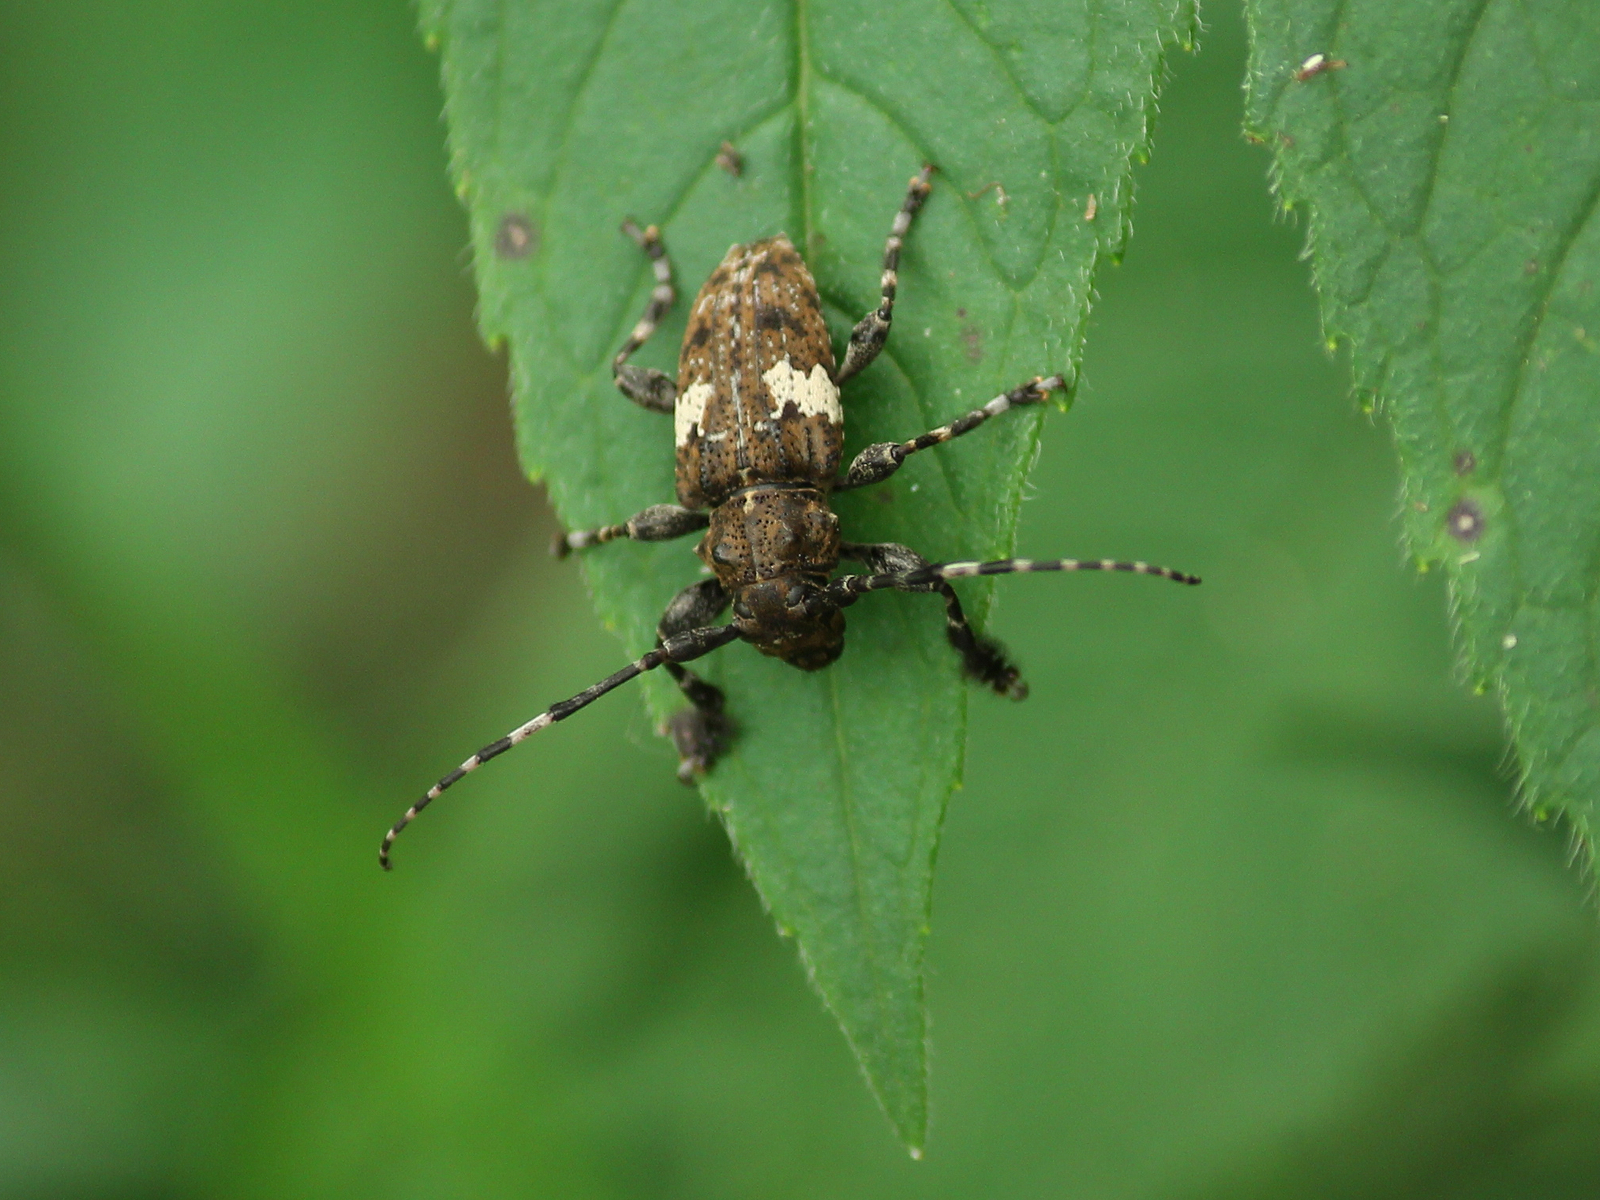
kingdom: Animalia
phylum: Arthropoda
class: Insecta
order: Coleoptera
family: Cerambycidae
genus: Acanthoderes
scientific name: Acanthoderes quadrigibba
